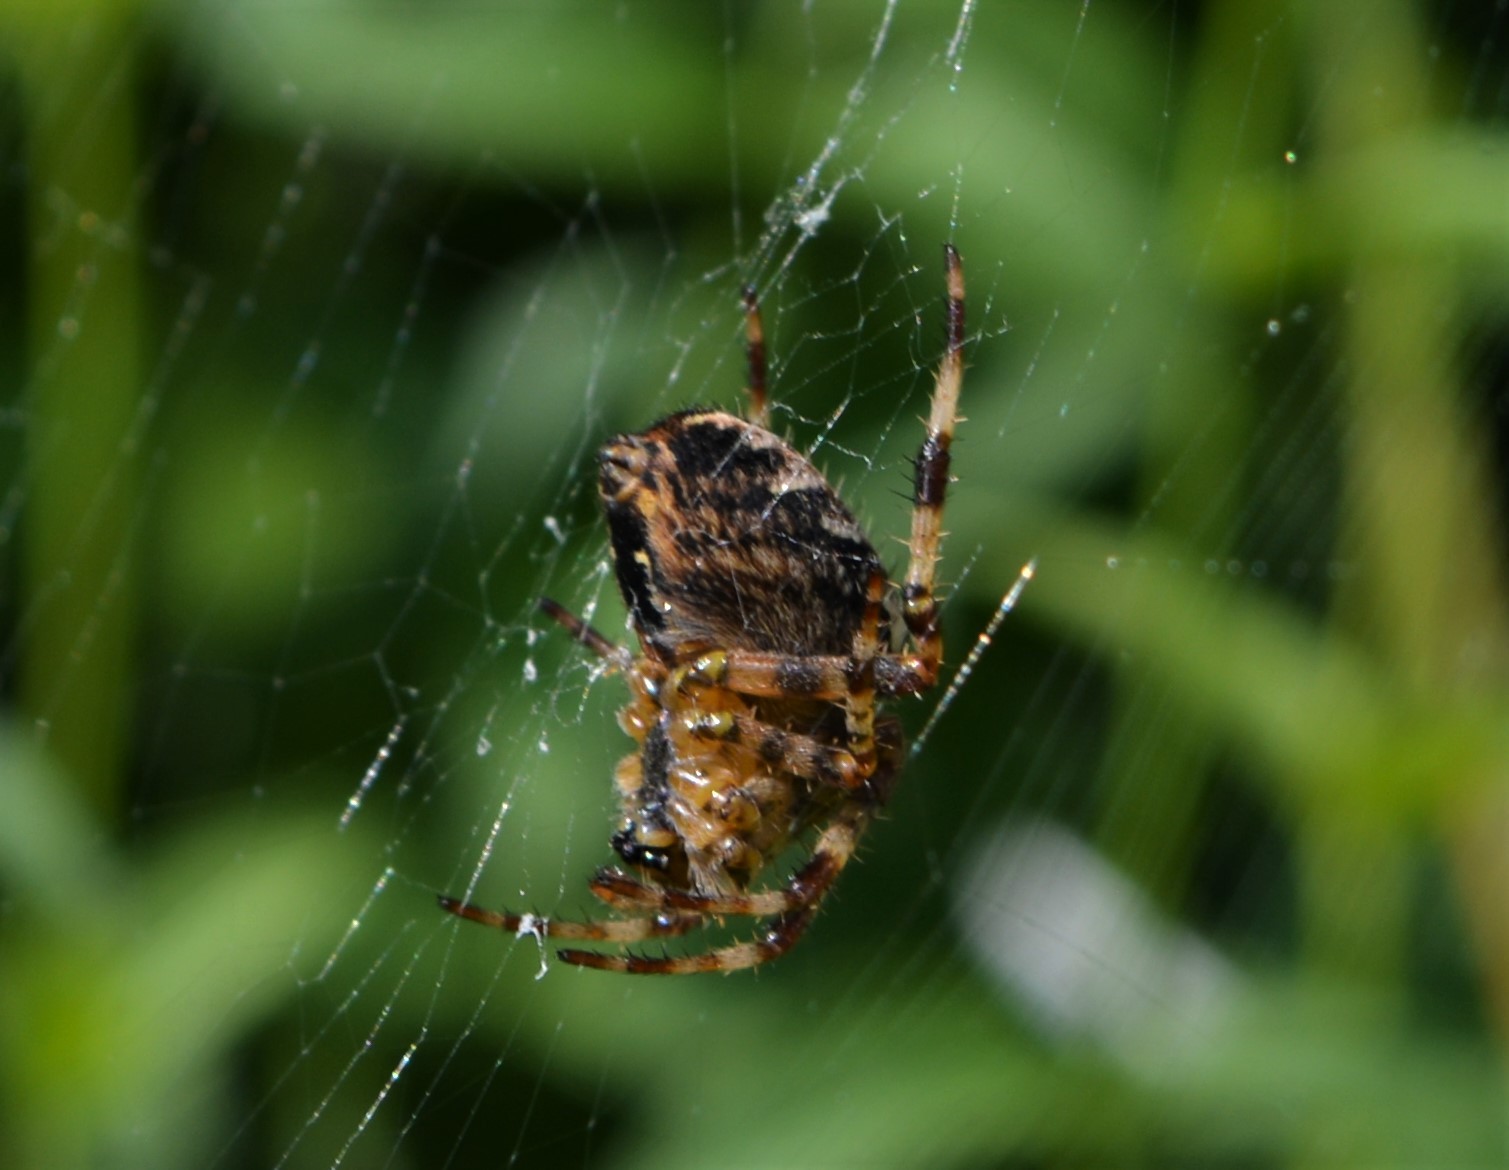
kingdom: Animalia
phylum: Arthropoda
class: Arachnida
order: Araneae
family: Araneidae
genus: Araneus
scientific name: Araneus diadematus
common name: Cross orbweaver
